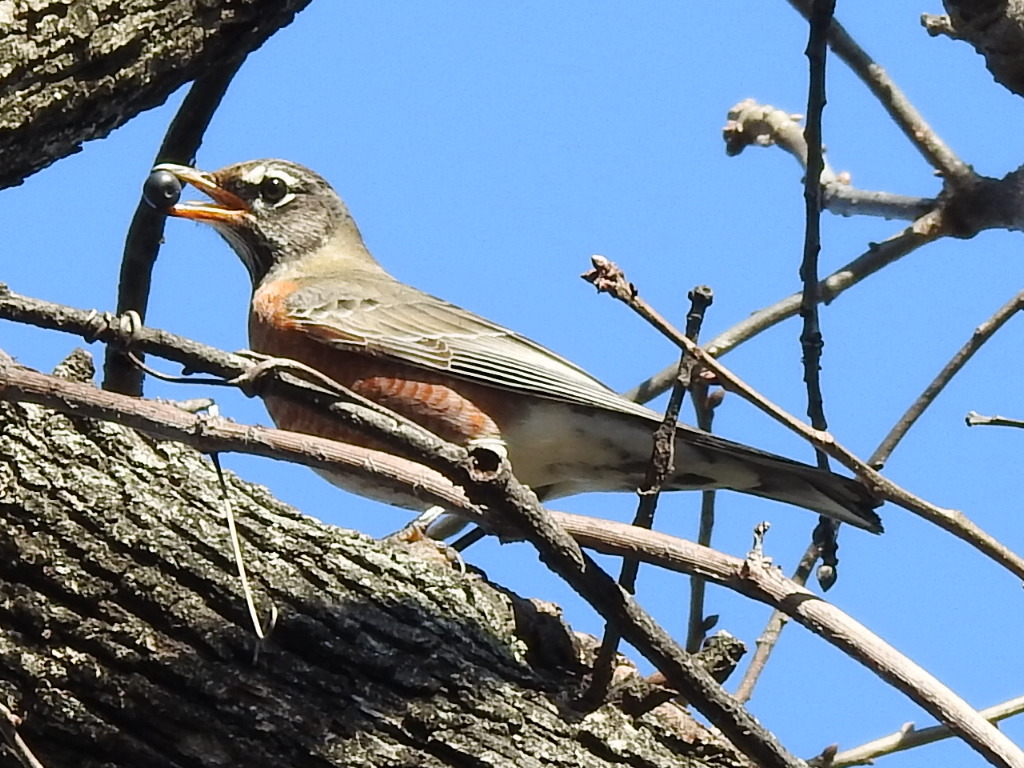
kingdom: Animalia
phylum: Chordata
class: Aves
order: Passeriformes
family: Turdidae
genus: Turdus
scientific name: Turdus migratorius
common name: American robin
